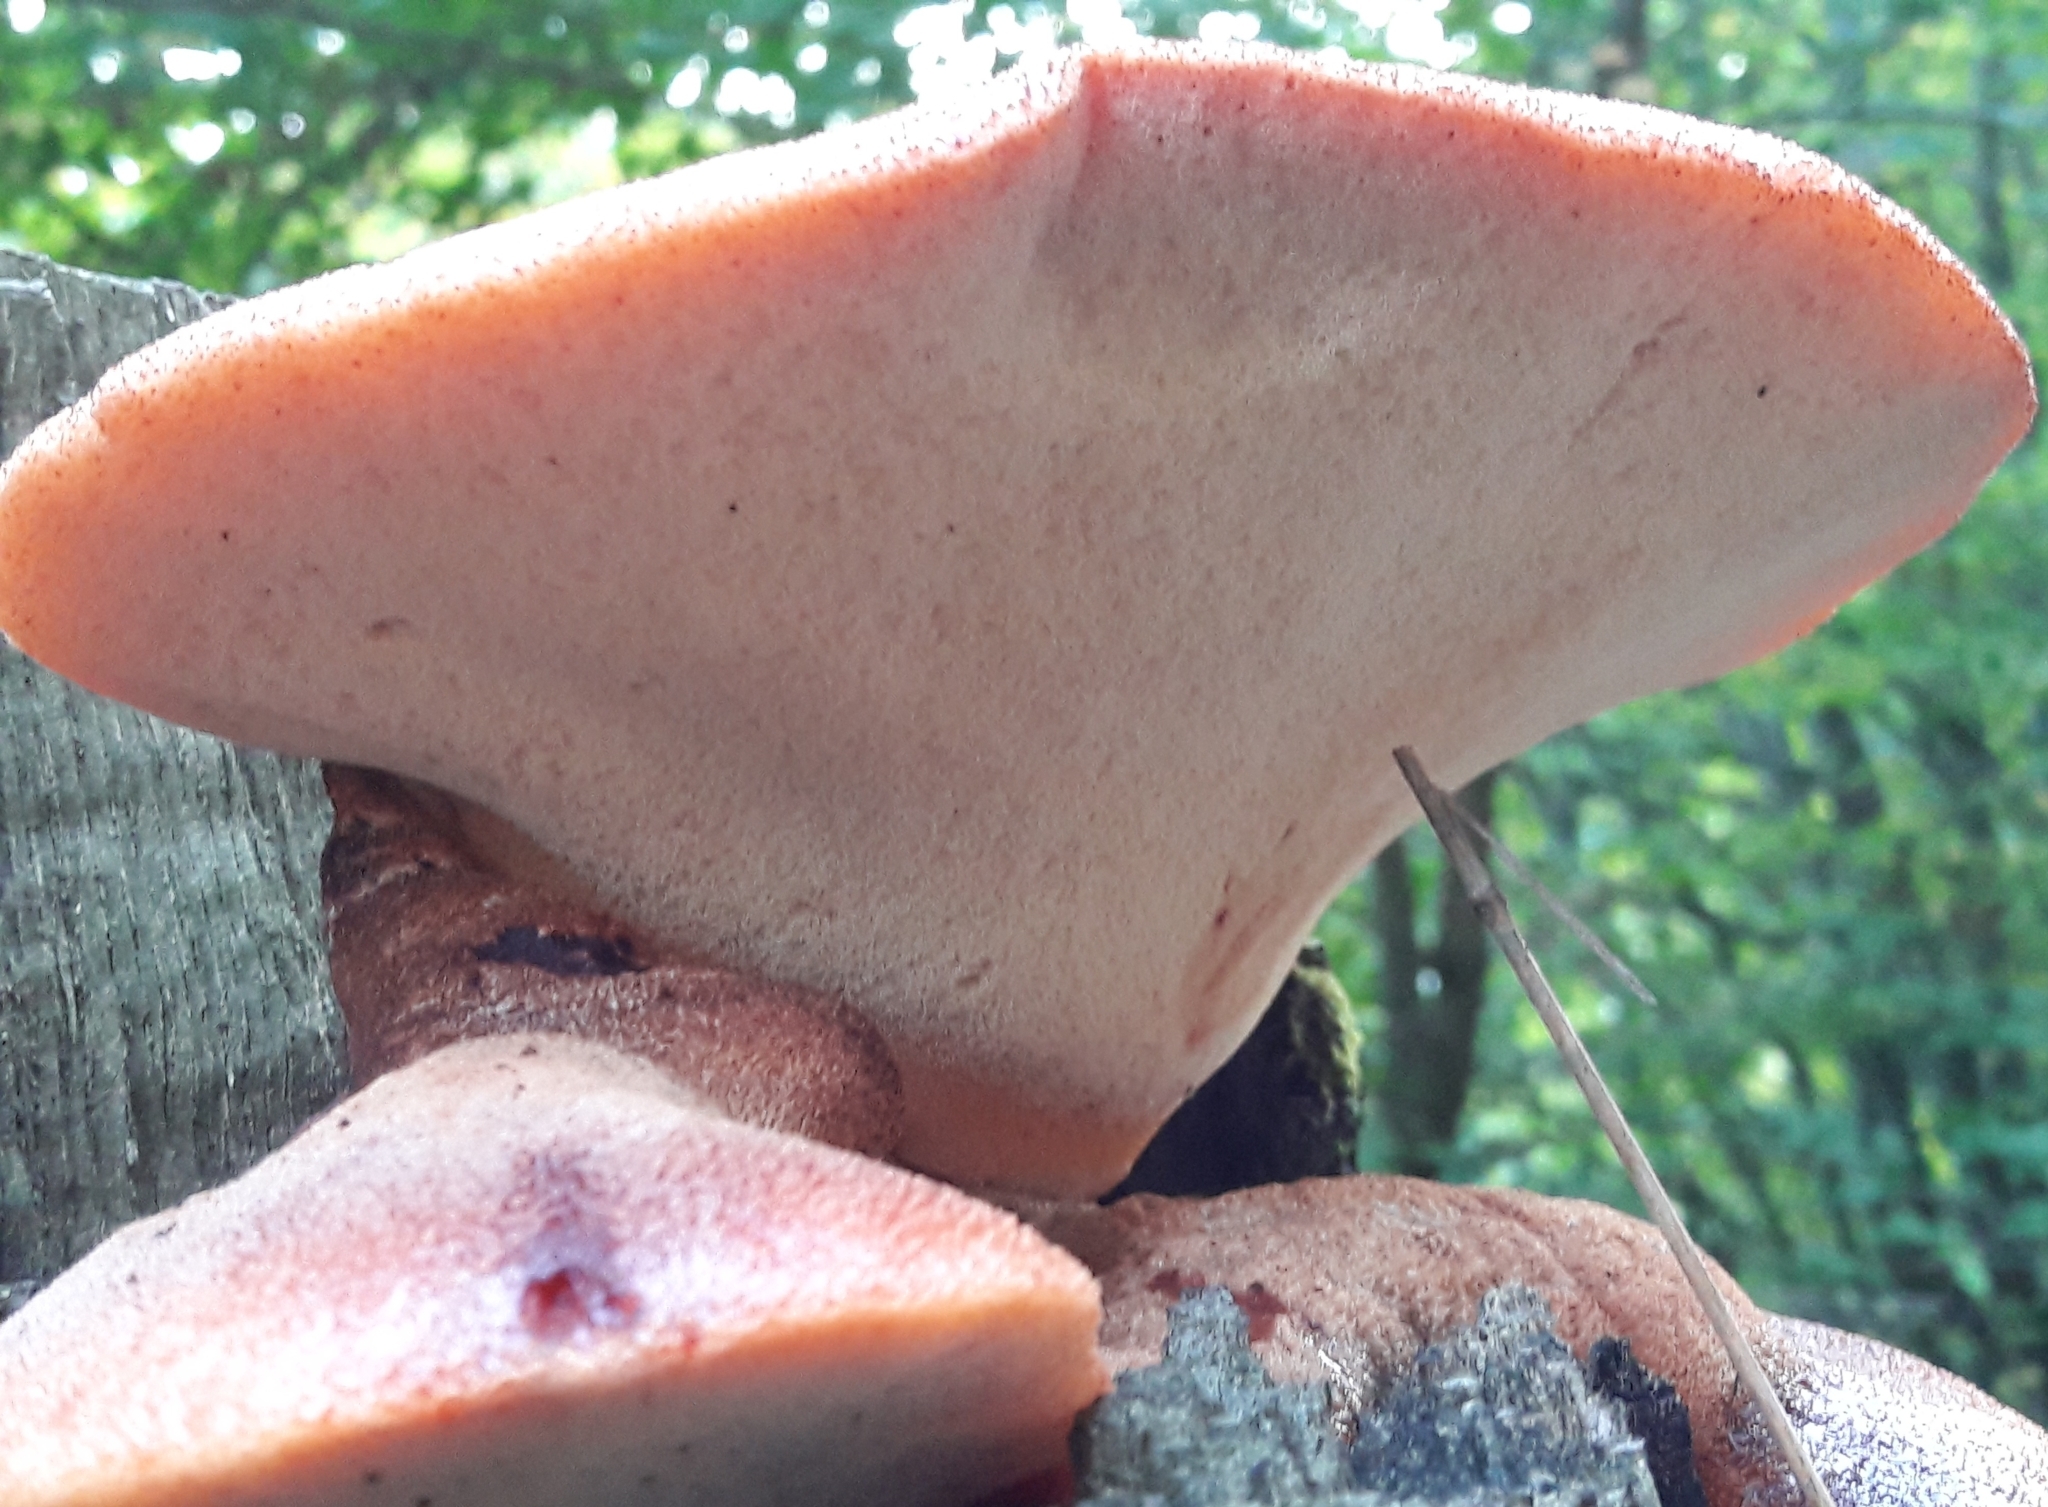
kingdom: Fungi
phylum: Basidiomycota
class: Agaricomycetes
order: Agaricales
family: Fistulinaceae
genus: Fistulina
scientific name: Fistulina hepatica
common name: Beef-steak fungus
